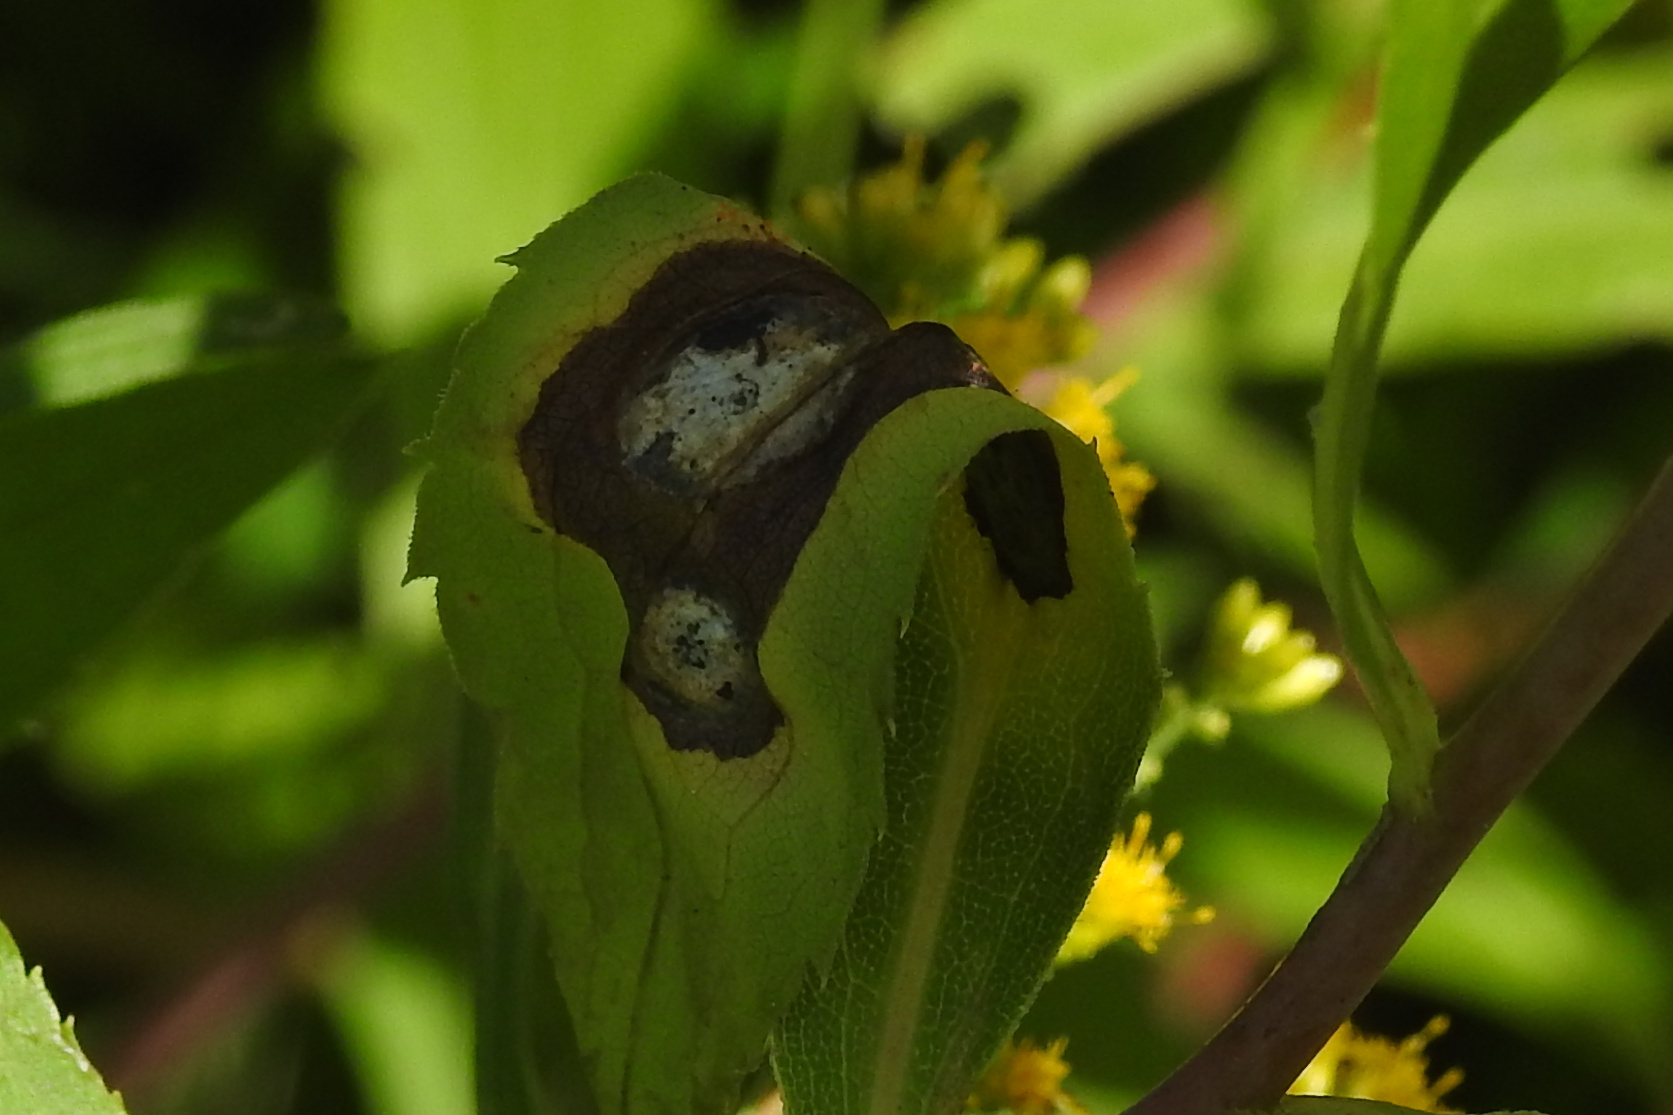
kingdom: Animalia
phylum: Arthropoda
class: Insecta
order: Diptera
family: Cecidomyiidae
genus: Asteromyia
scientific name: Asteromyia carbonifera
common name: Carbonifera goldenrod gall midge
